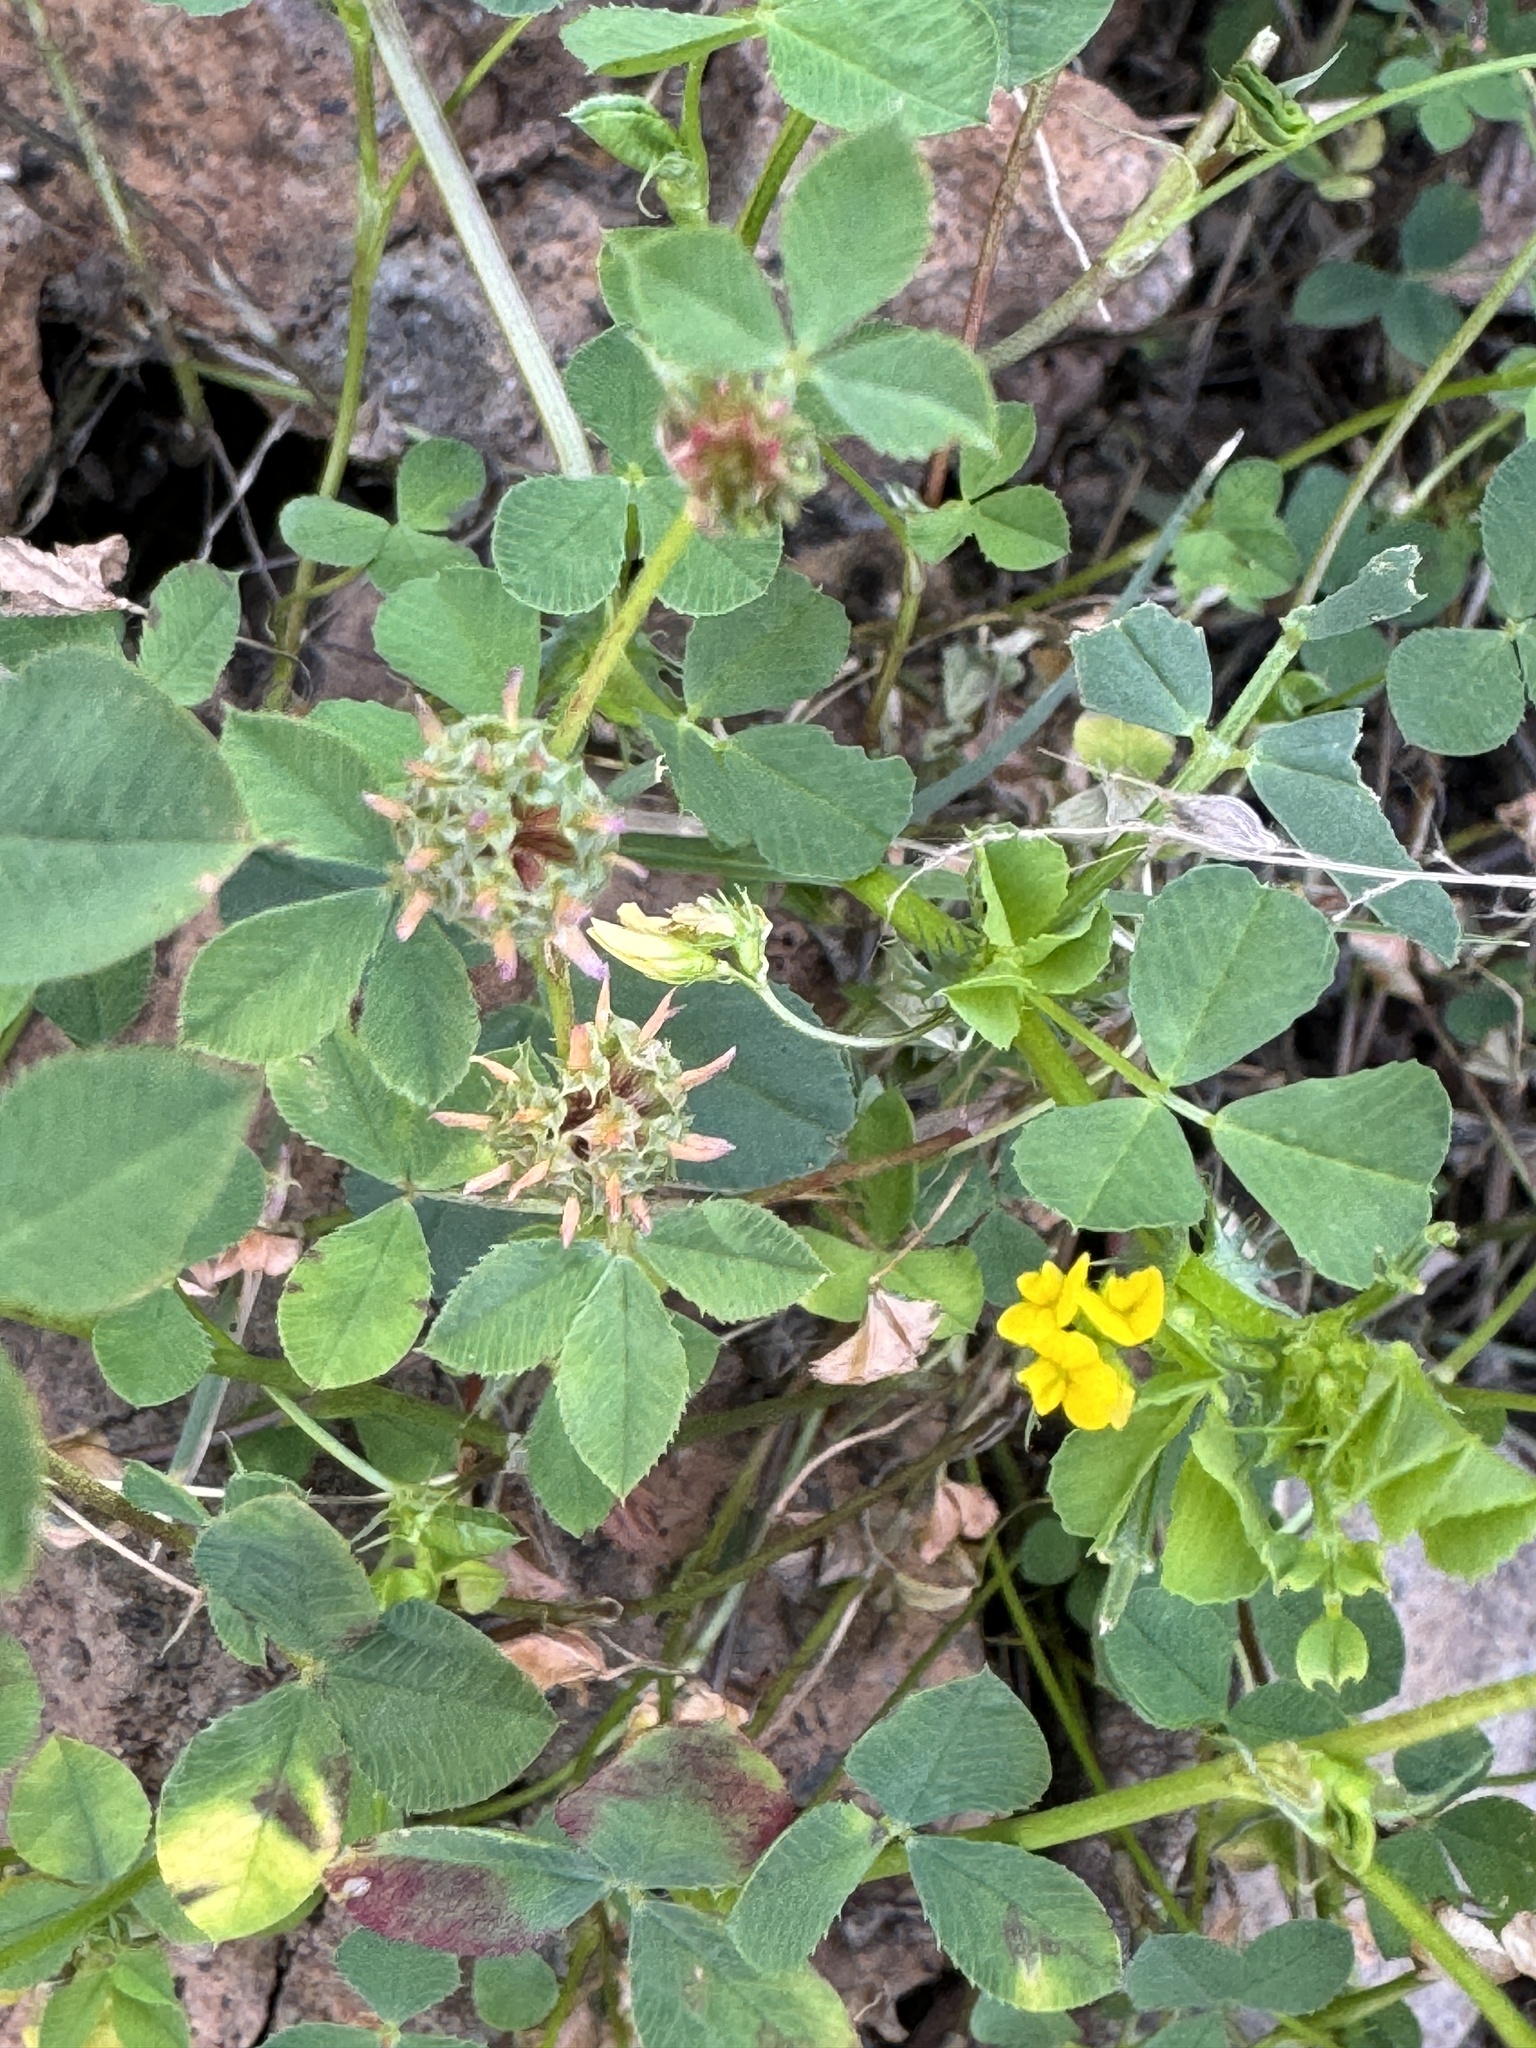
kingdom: Plantae
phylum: Tracheophyta
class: Magnoliopsida
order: Fabales
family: Fabaceae
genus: Trifolium
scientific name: Trifolium glomeratum
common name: Clustered clover
